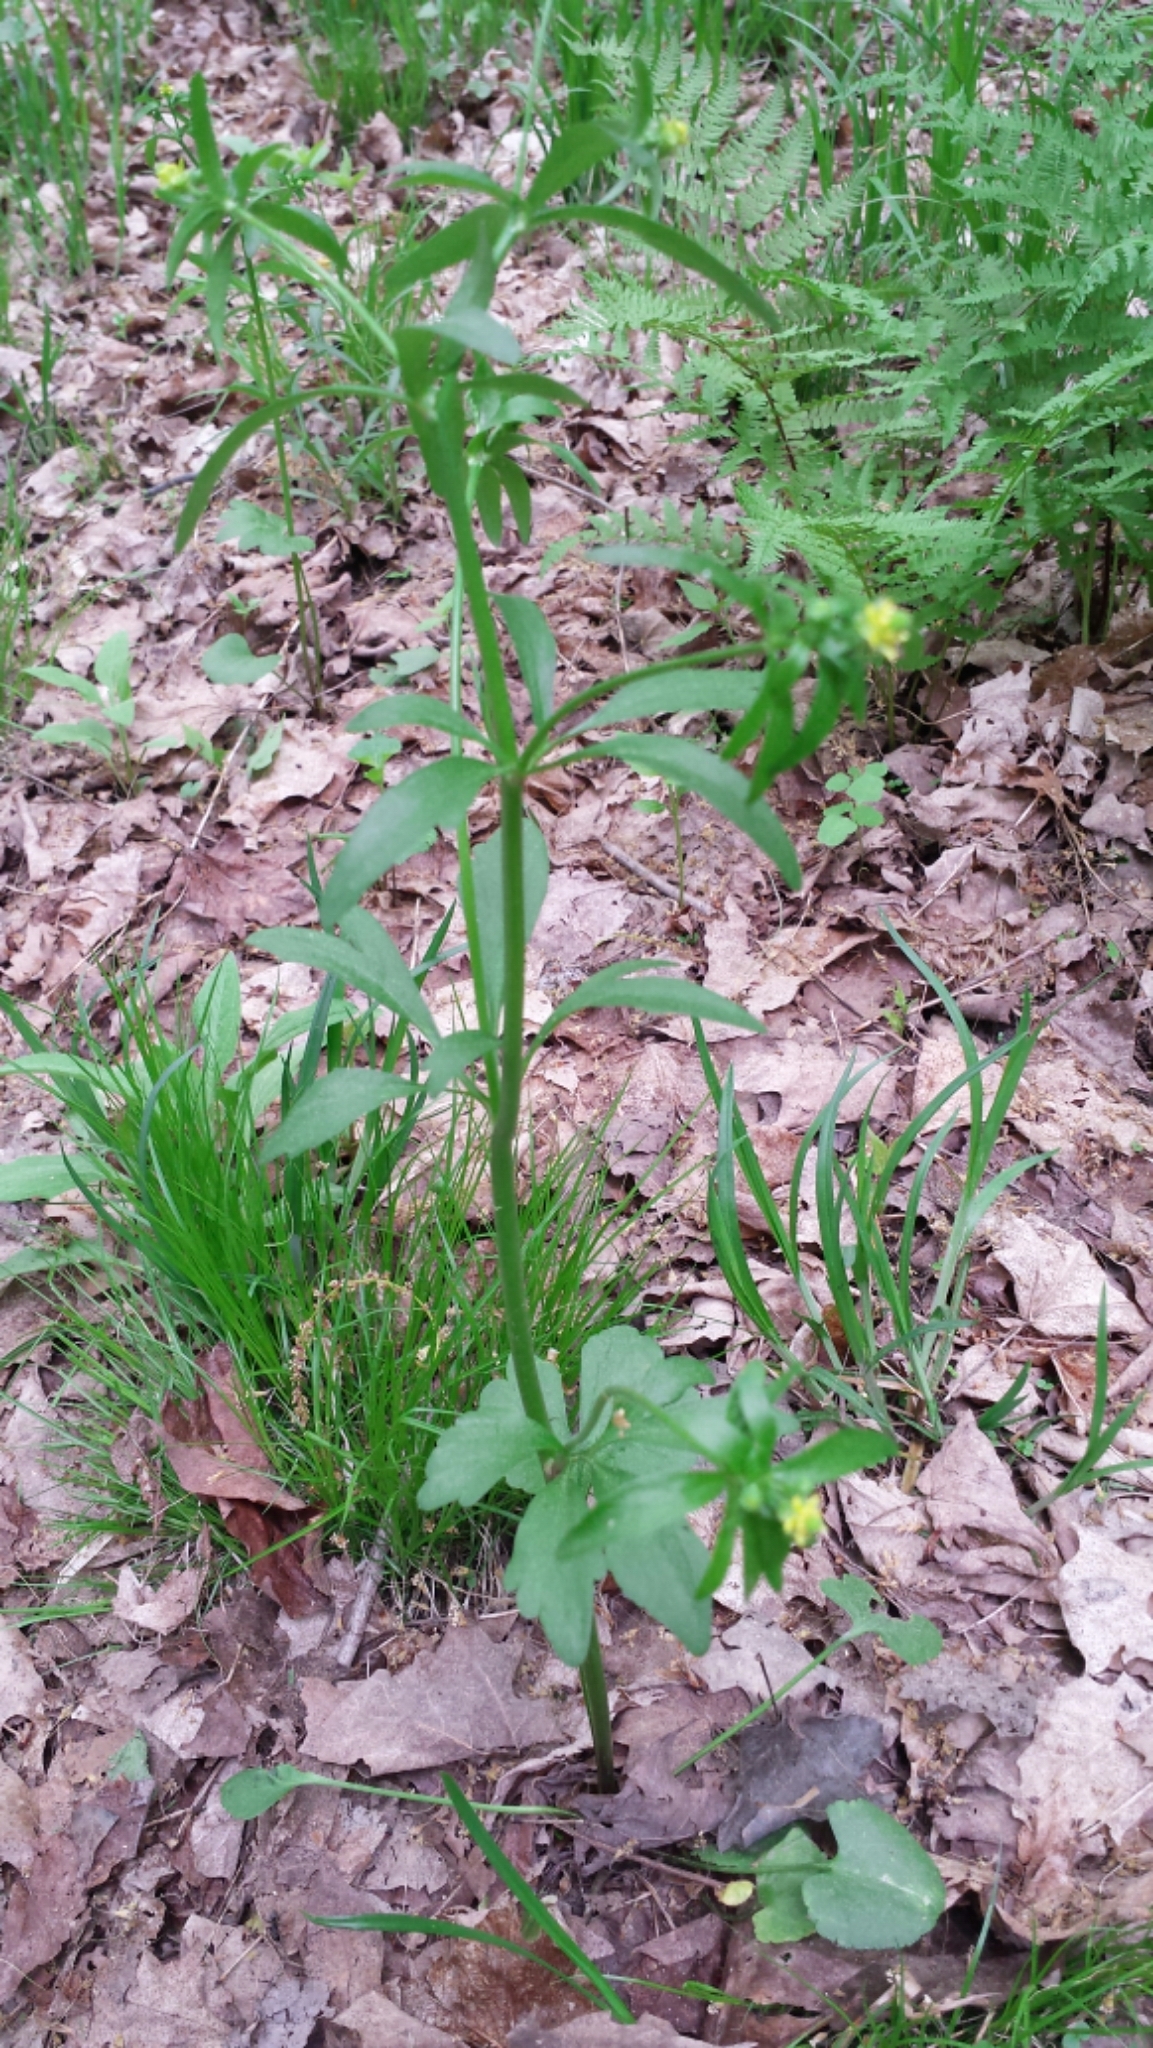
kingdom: Plantae
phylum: Tracheophyta
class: Magnoliopsida
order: Ranunculales
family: Ranunculaceae
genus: Ranunculus
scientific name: Ranunculus abortivus
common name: Early wood buttercup
